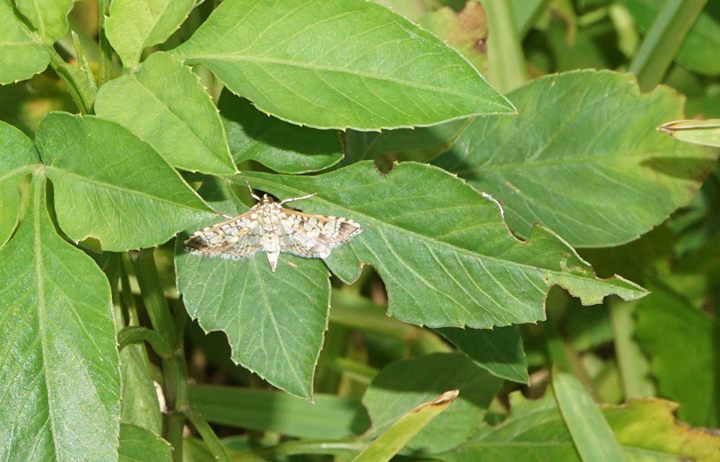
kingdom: Animalia
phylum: Arthropoda
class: Insecta
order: Lepidoptera
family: Crambidae
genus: Samea
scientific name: Samea ecclesialis
